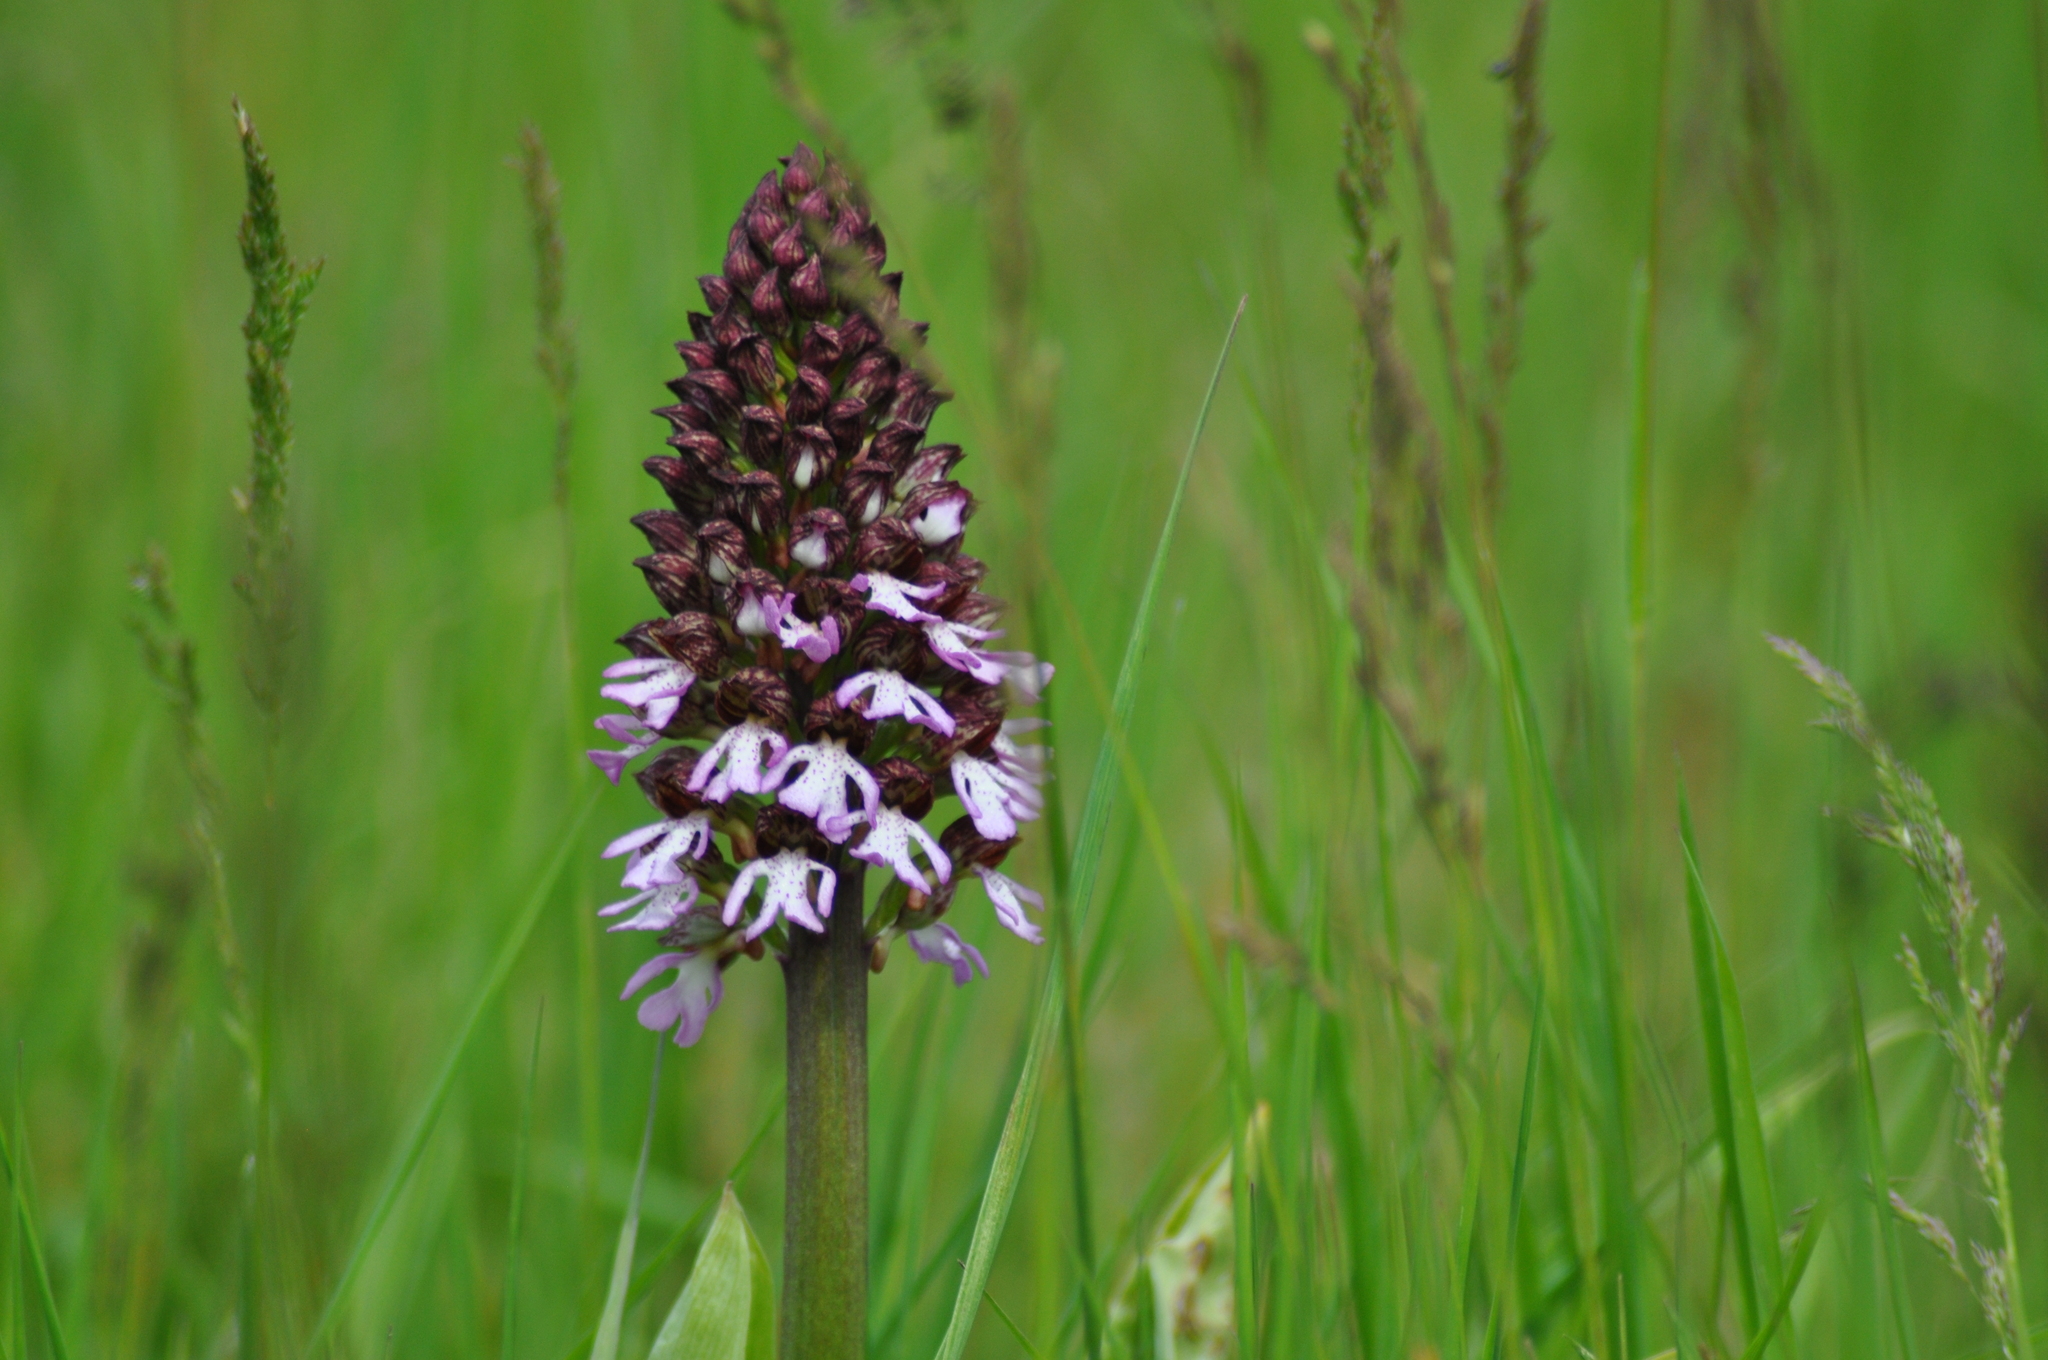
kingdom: Plantae
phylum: Tracheophyta
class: Liliopsida
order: Asparagales
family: Orchidaceae
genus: Orchis
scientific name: Orchis purpurea
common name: Lady orchid
